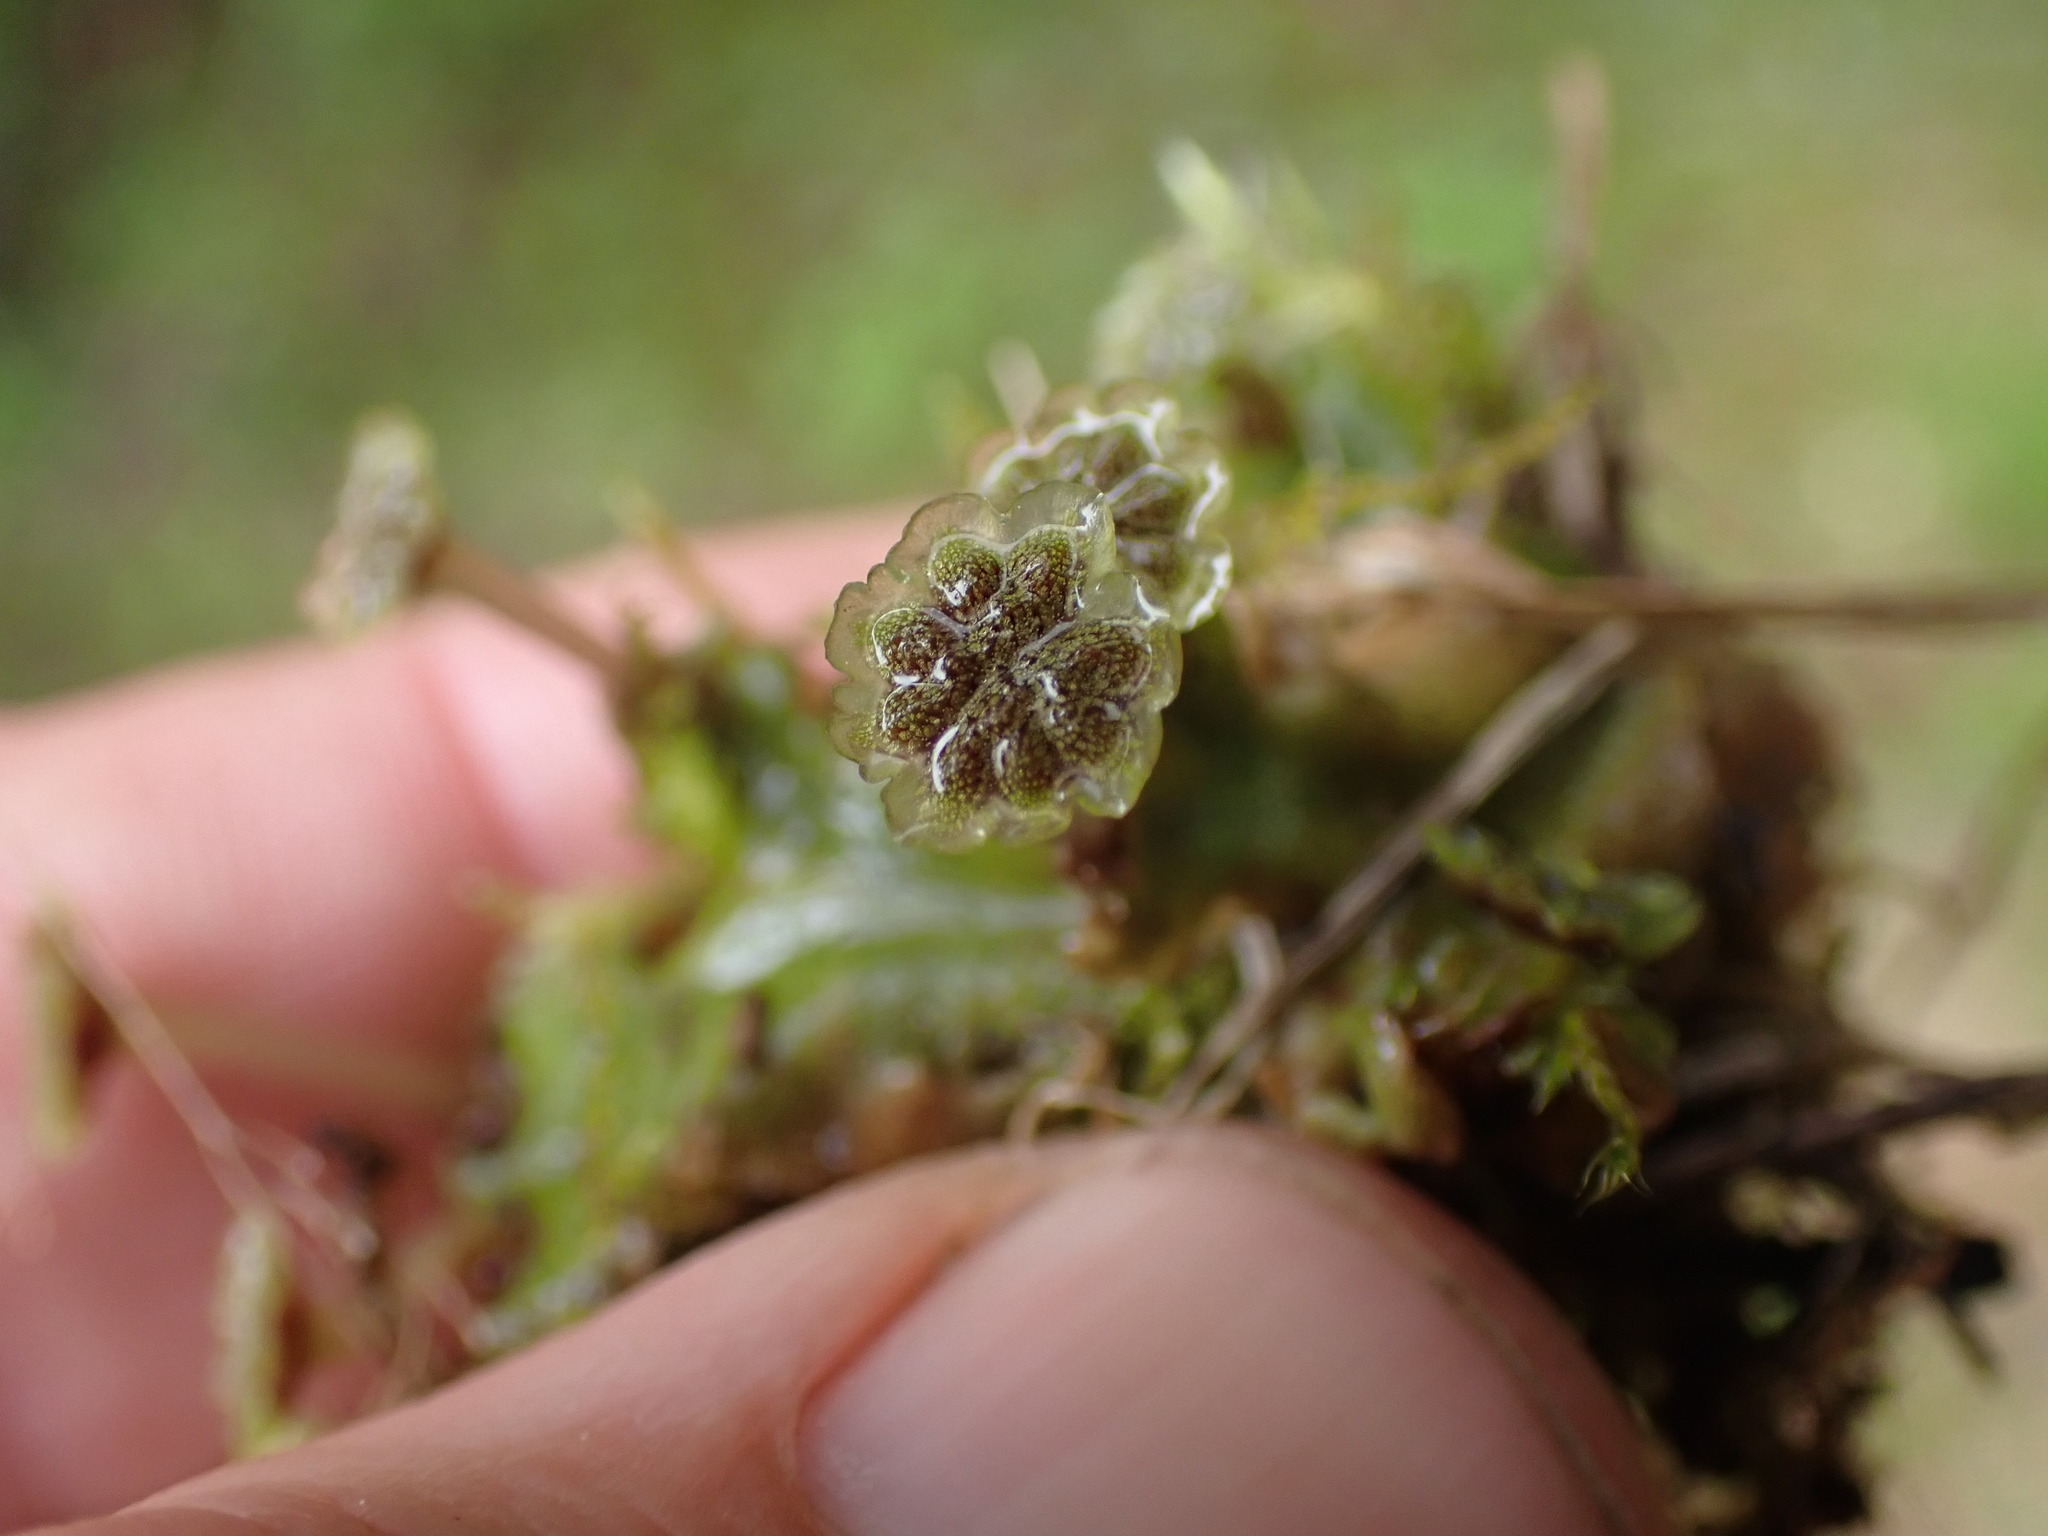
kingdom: Plantae
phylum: Marchantiophyta
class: Marchantiopsida
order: Marchantiales
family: Marchantiaceae
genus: Marchantia
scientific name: Marchantia polymorpha
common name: Common liverwort
